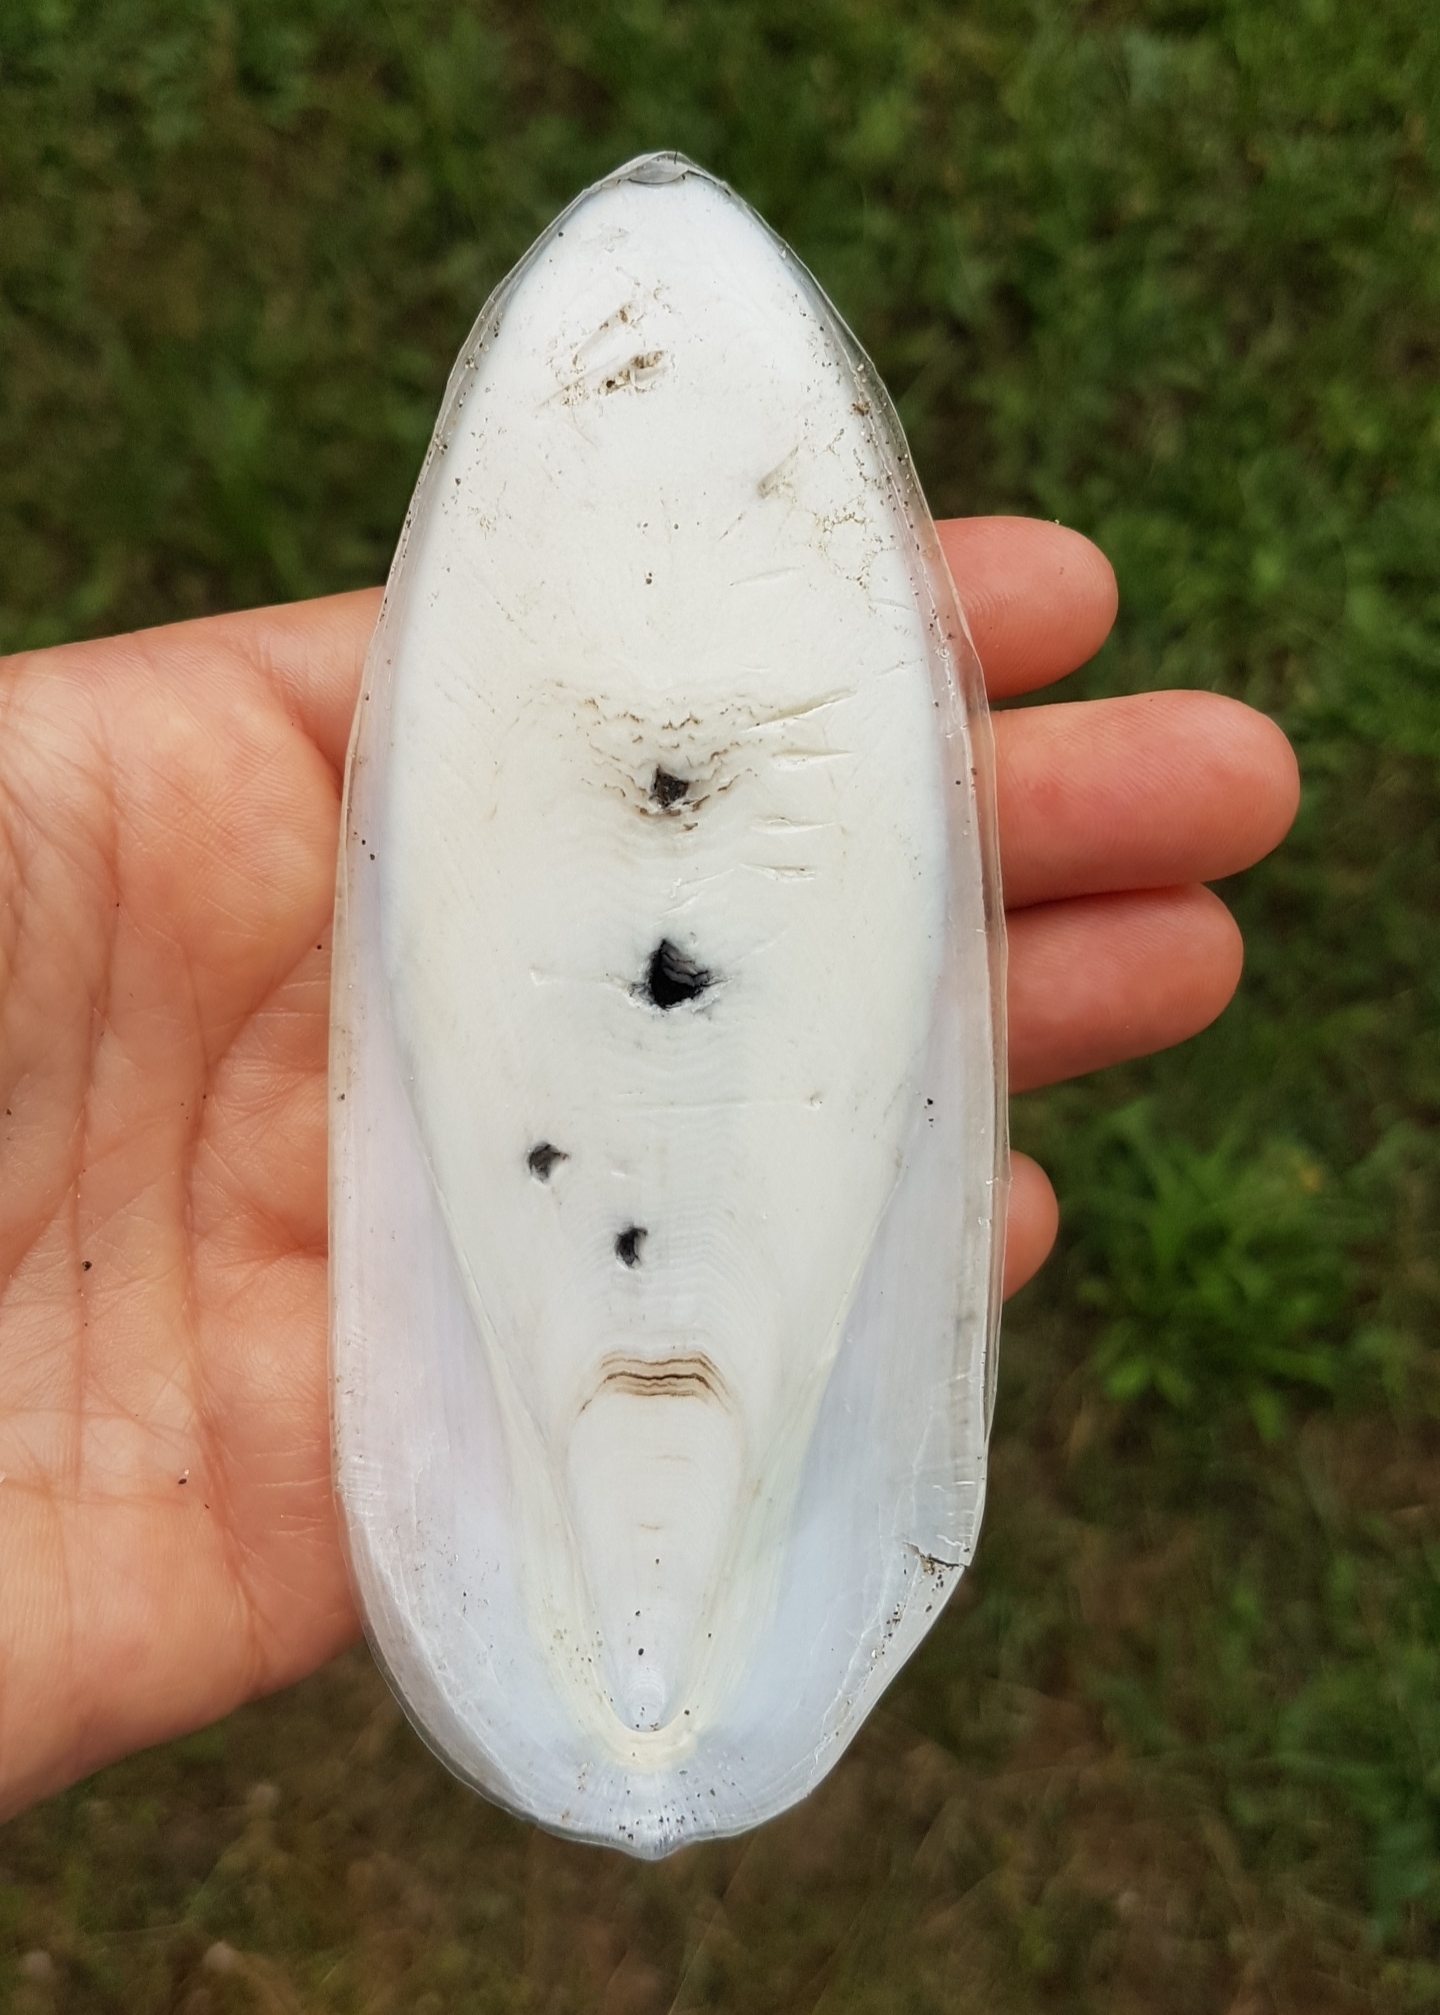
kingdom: Animalia
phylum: Mollusca
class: Cephalopoda
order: Sepiida
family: Sepiidae
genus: Sepia
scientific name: Sepia officinalis
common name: Common cuttlefish
